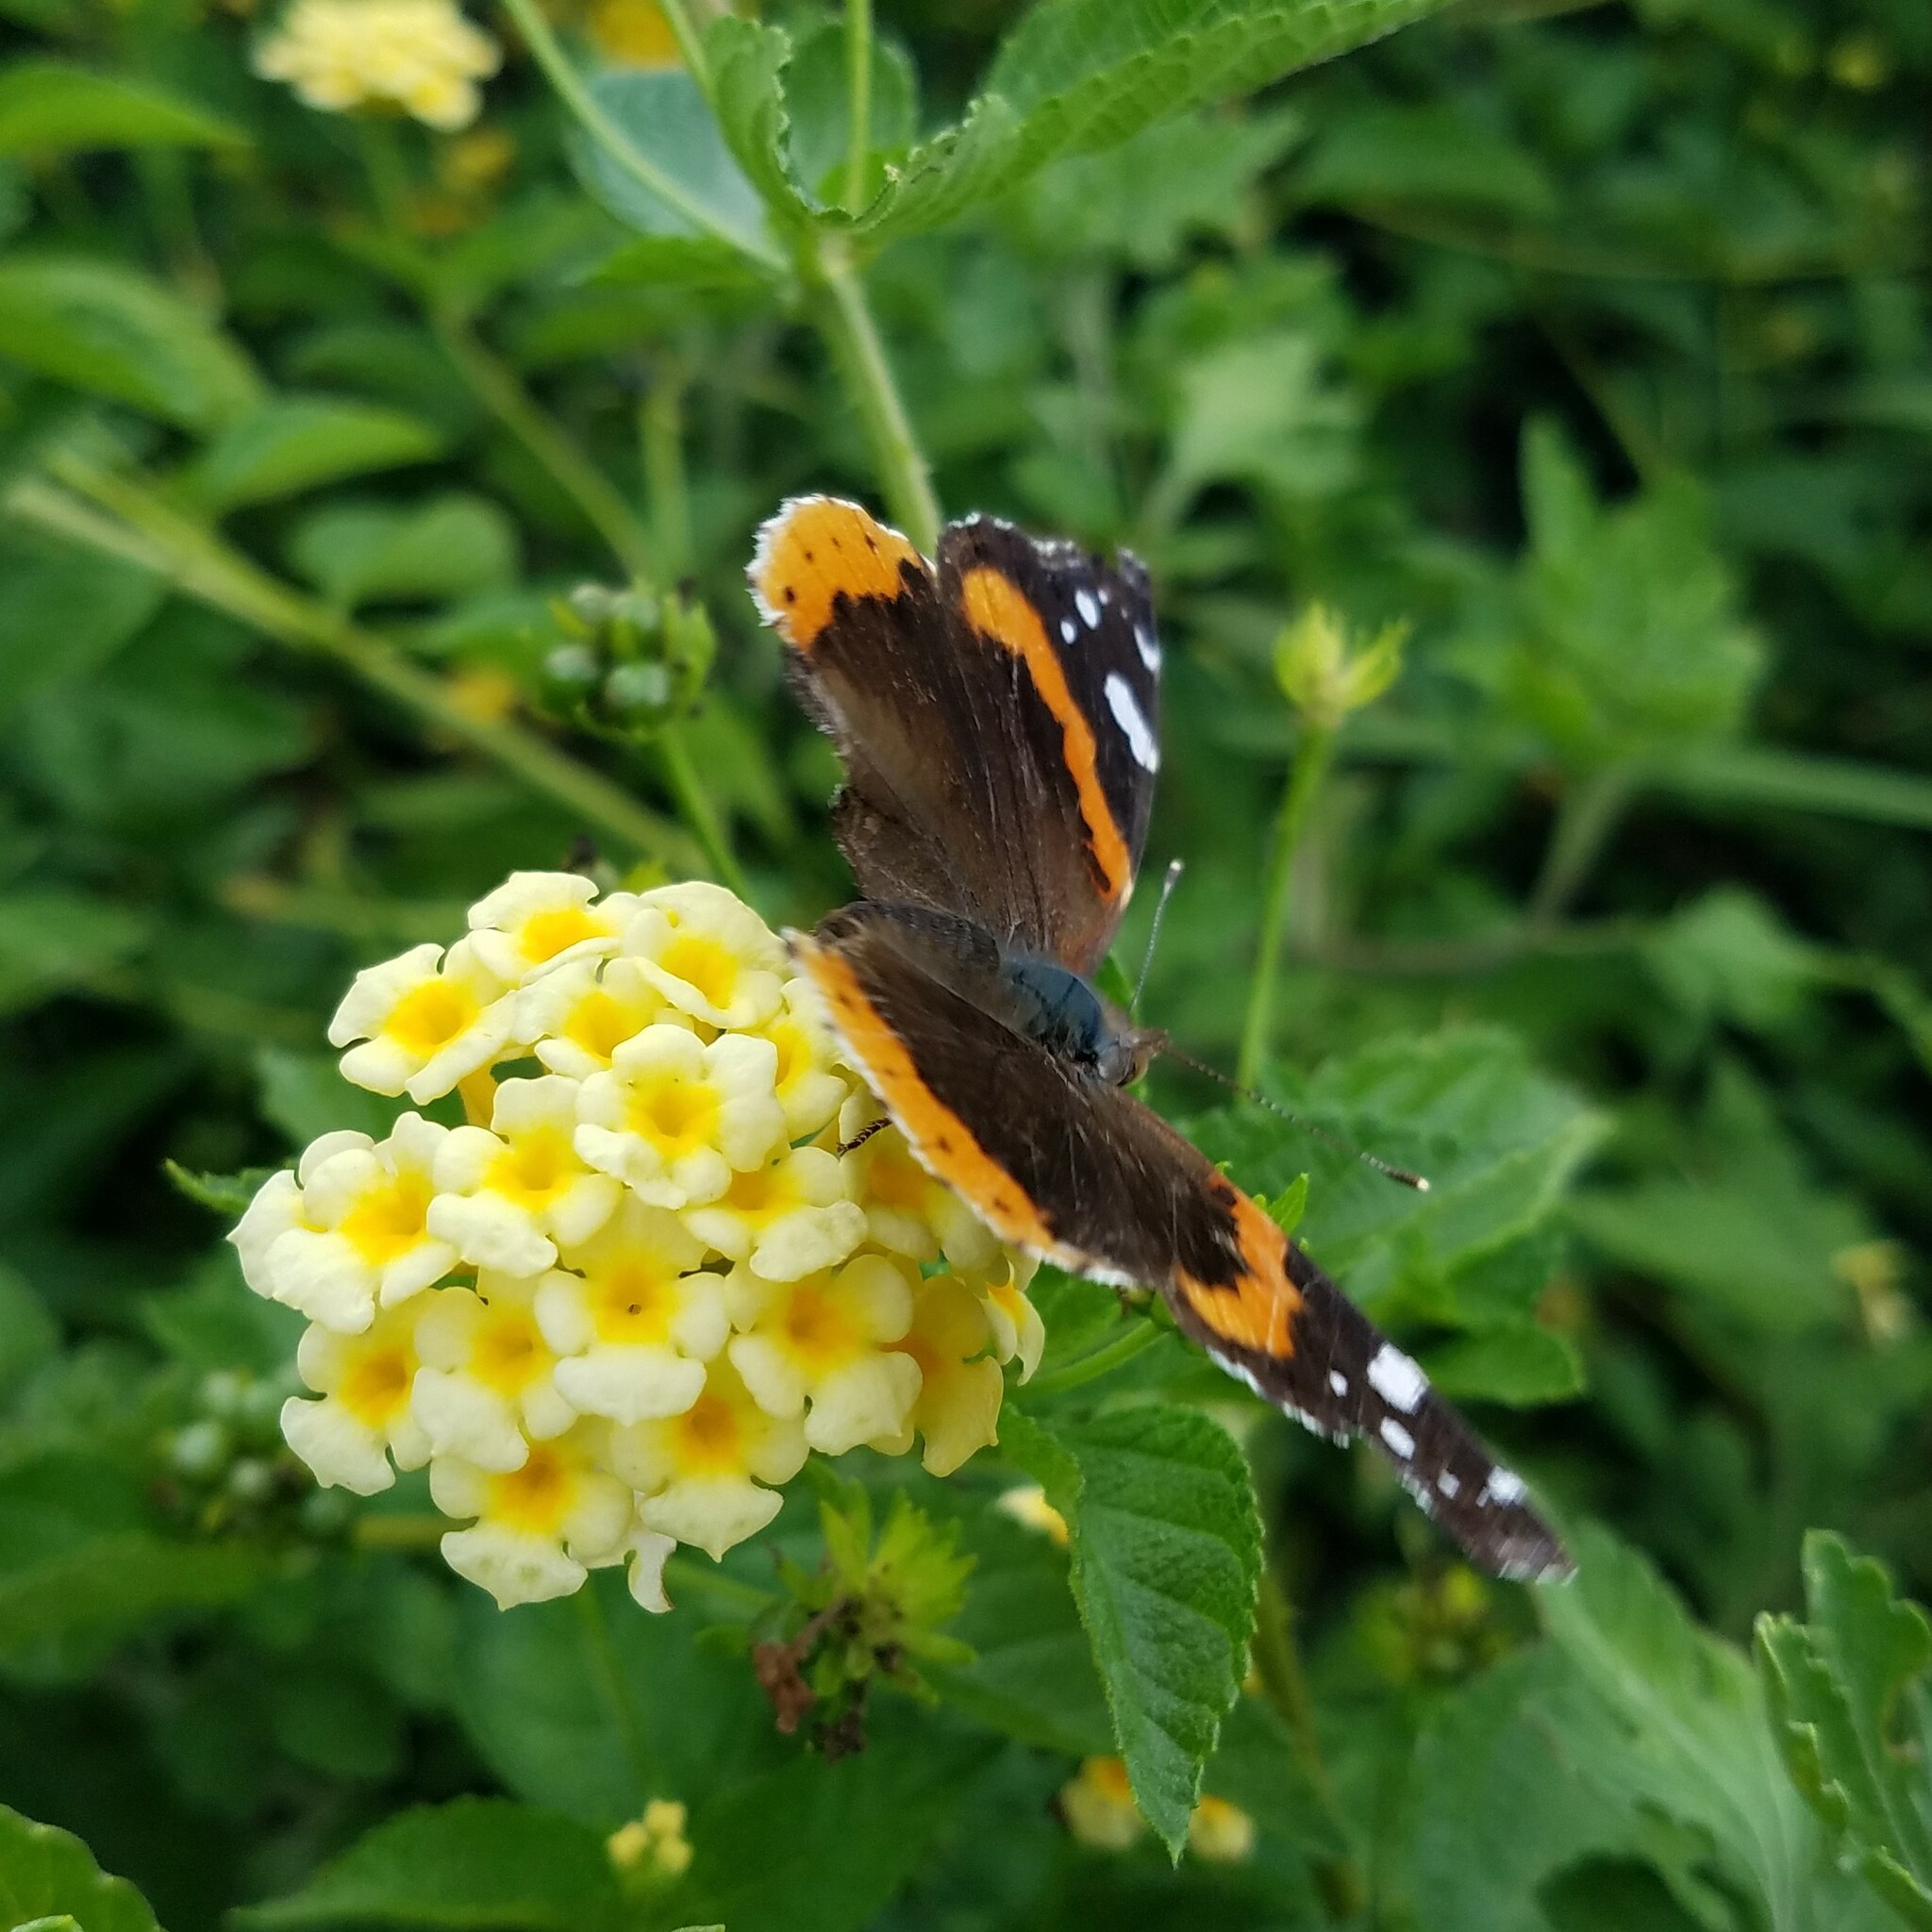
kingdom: Animalia
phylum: Arthropoda
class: Insecta
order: Lepidoptera
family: Nymphalidae
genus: Vanessa
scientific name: Vanessa atalanta
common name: Red admiral
